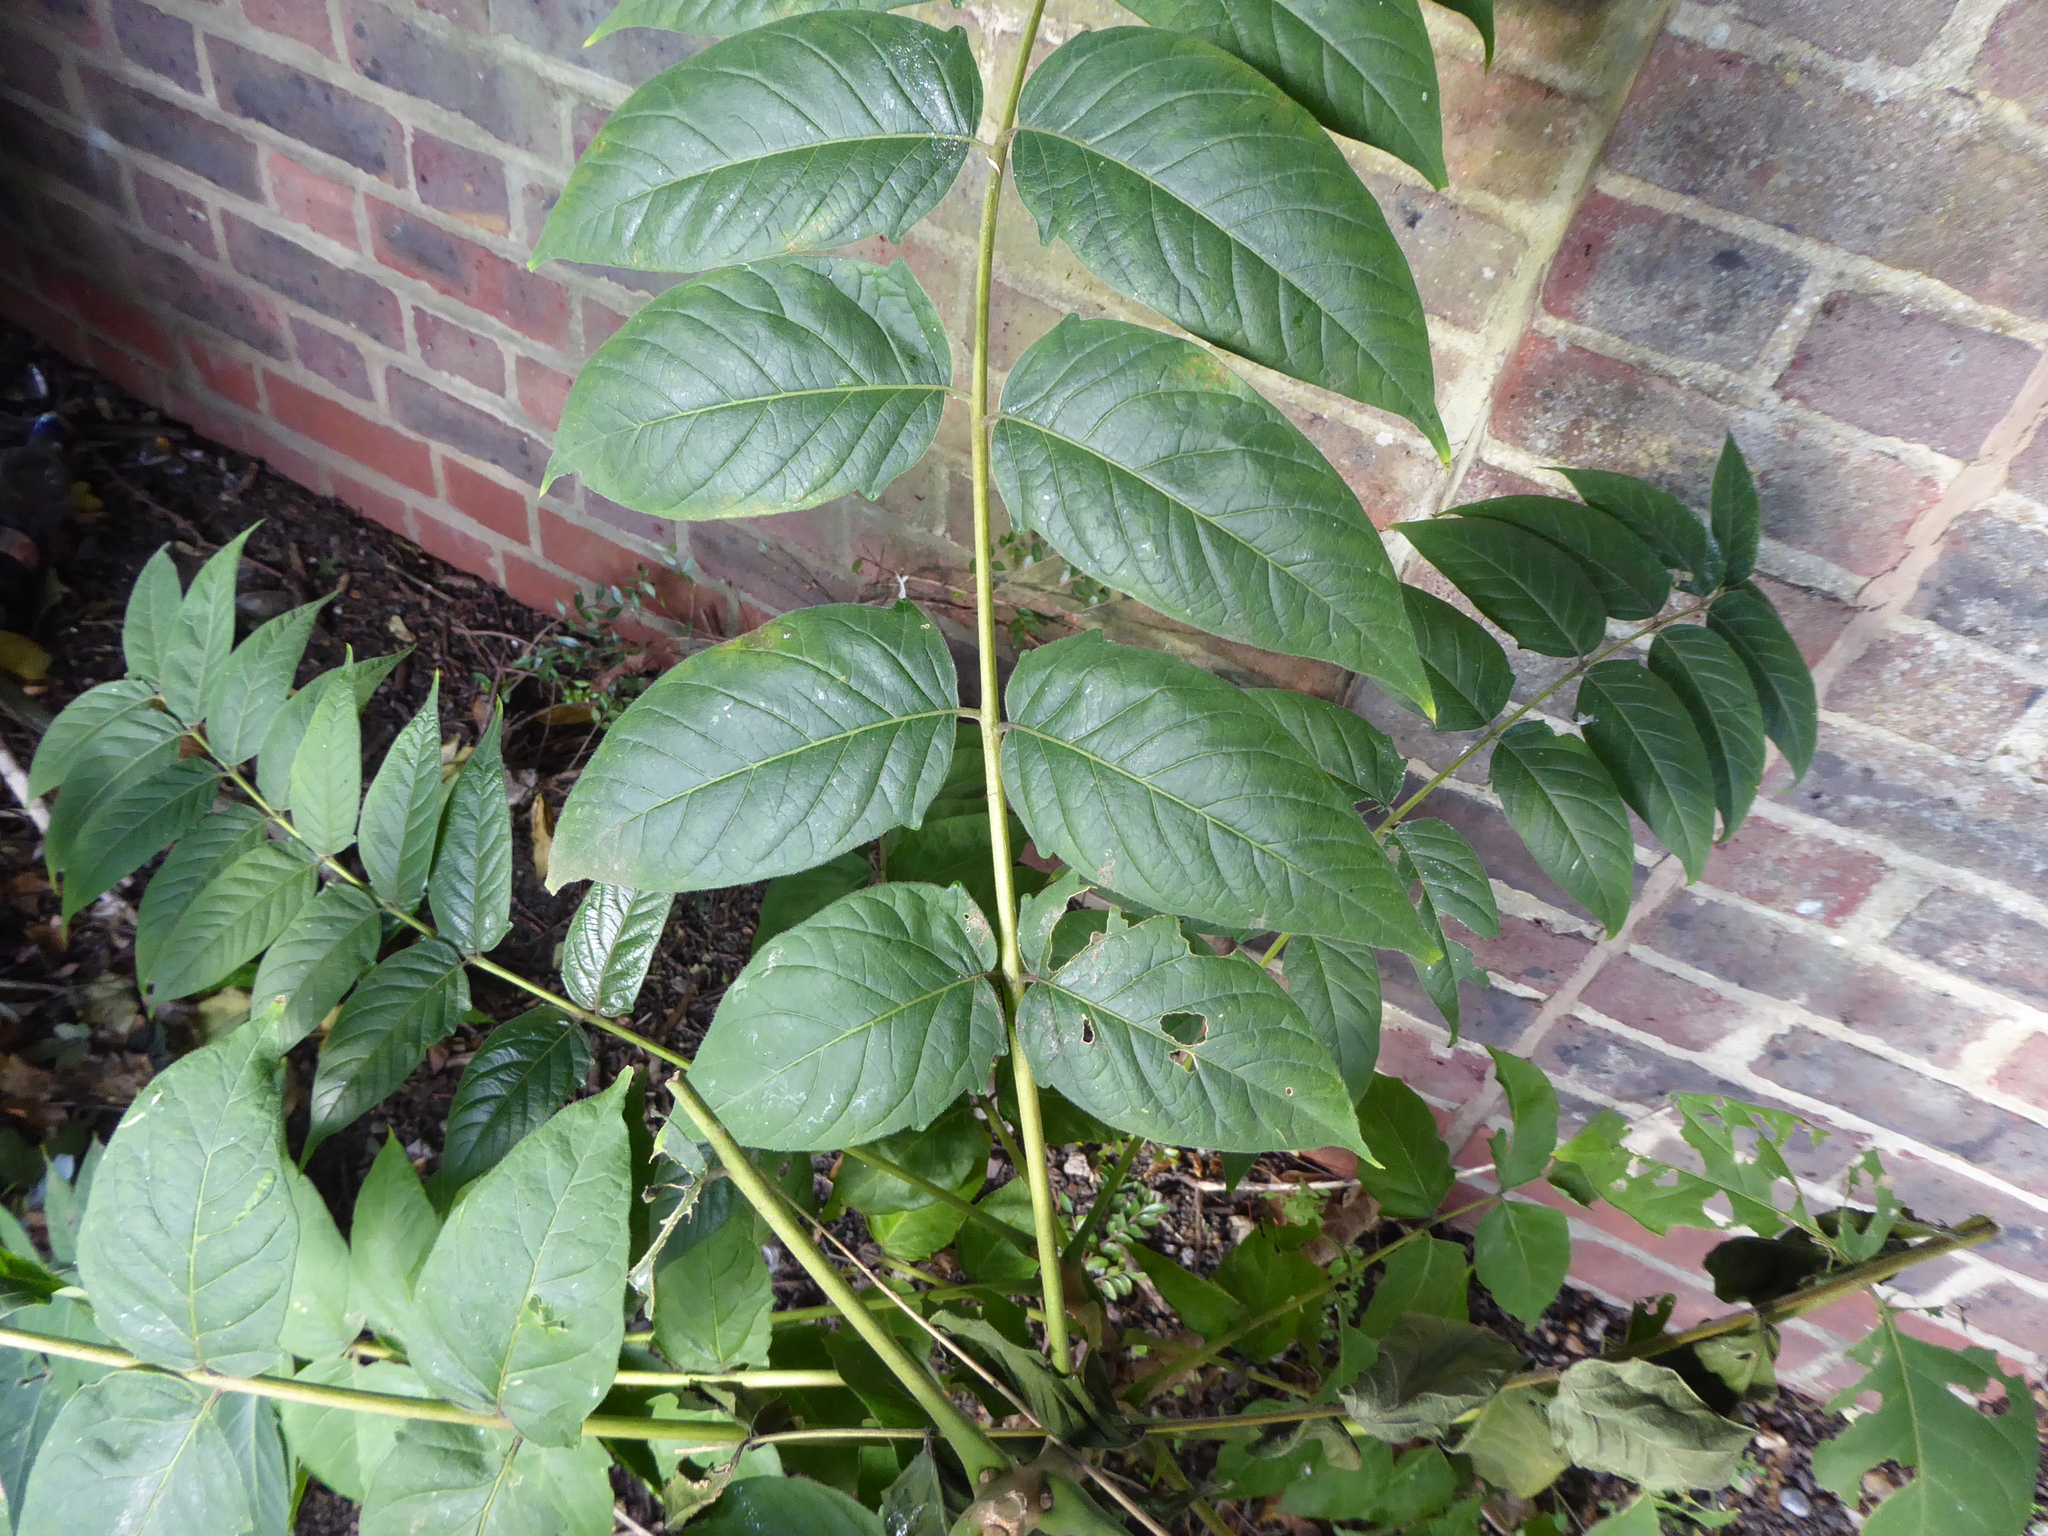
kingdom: Plantae
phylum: Tracheophyta
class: Magnoliopsida
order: Sapindales
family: Simaroubaceae
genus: Ailanthus
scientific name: Ailanthus altissima
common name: Tree-of-heaven
